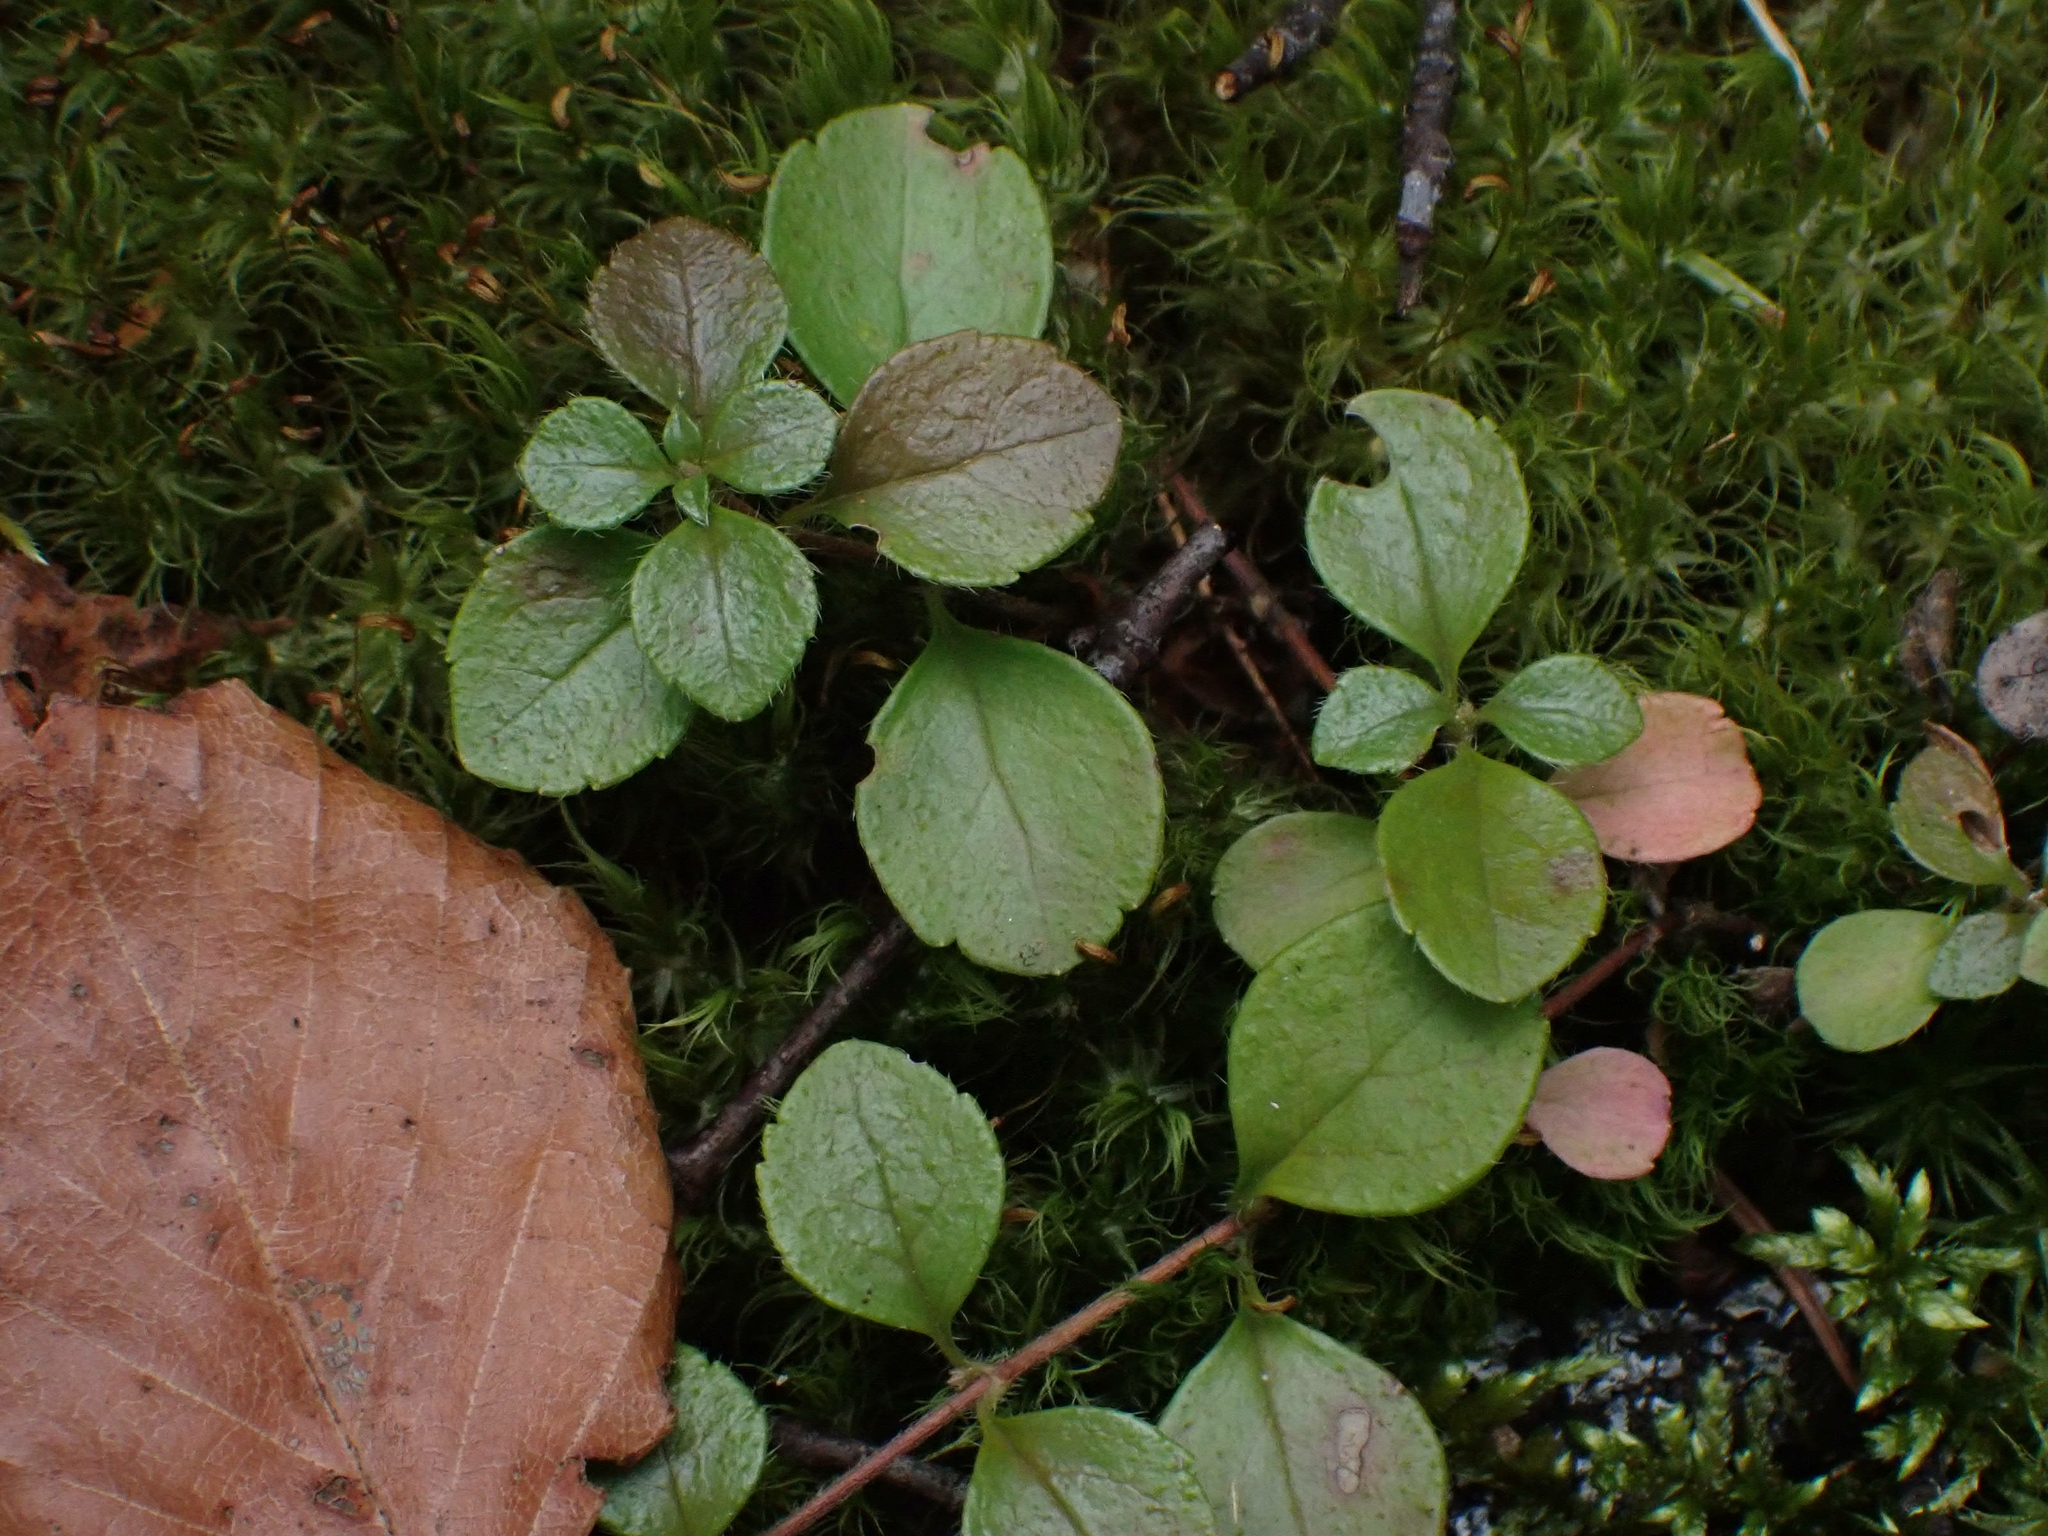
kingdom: Plantae
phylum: Tracheophyta
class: Magnoliopsida
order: Dipsacales
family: Caprifoliaceae
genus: Linnaea
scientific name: Linnaea borealis
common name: Twinflower
